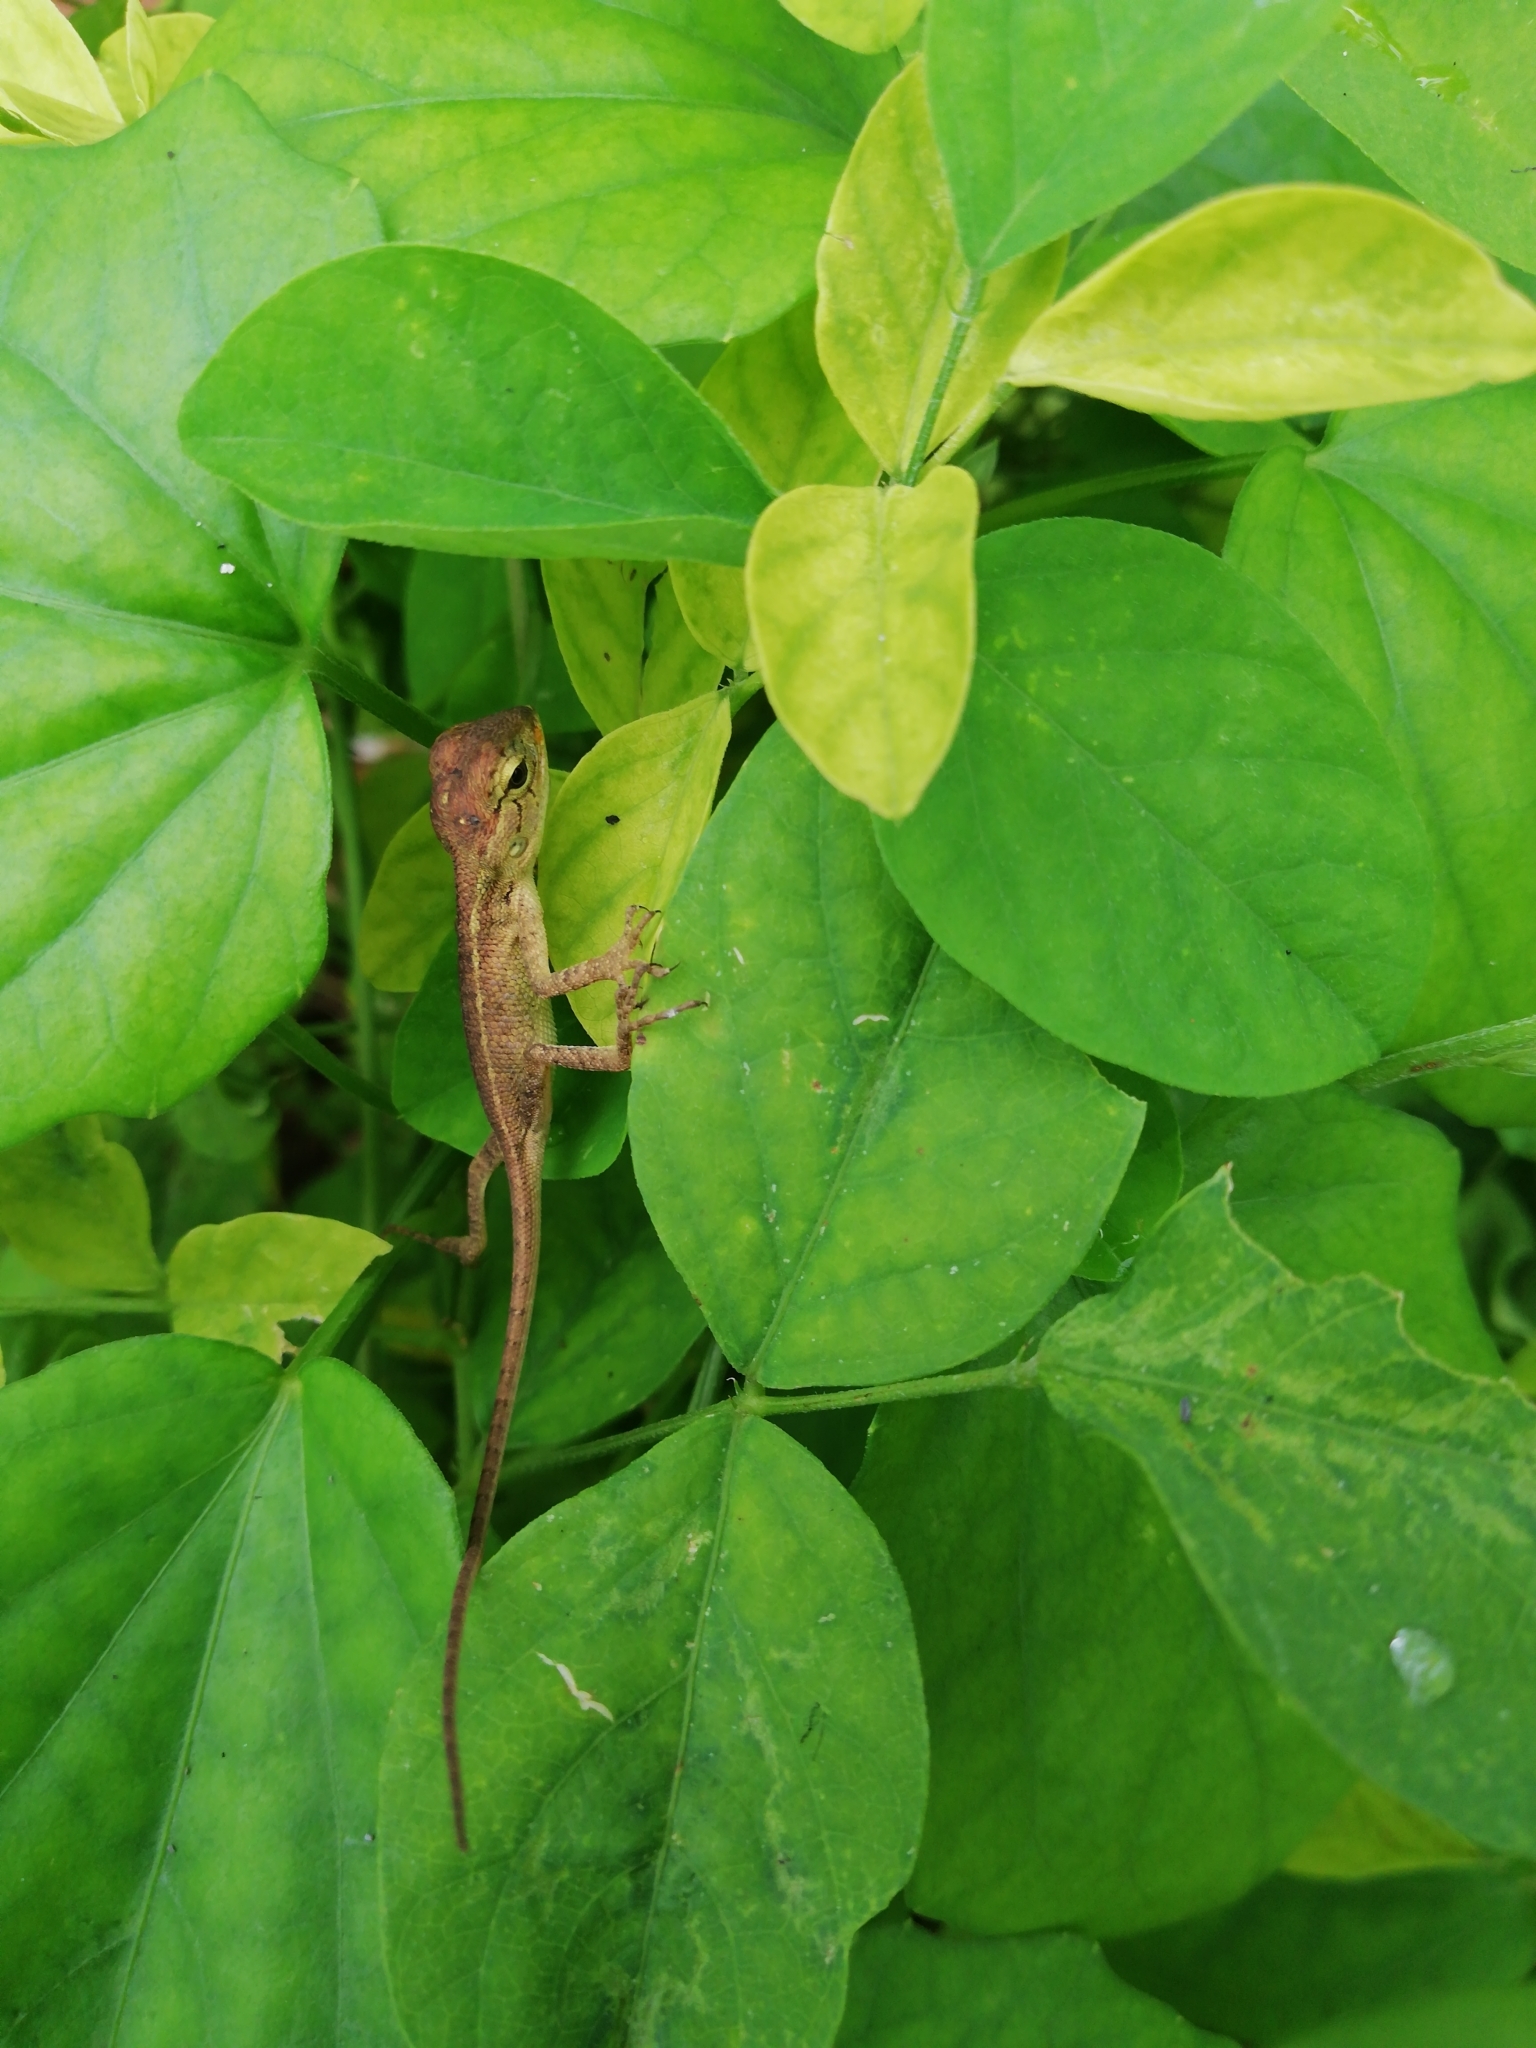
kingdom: Animalia
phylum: Chordata
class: Squamata
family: Agamidae
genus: Calotes
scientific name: Calotes versicolor
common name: Oriental garden lizard
